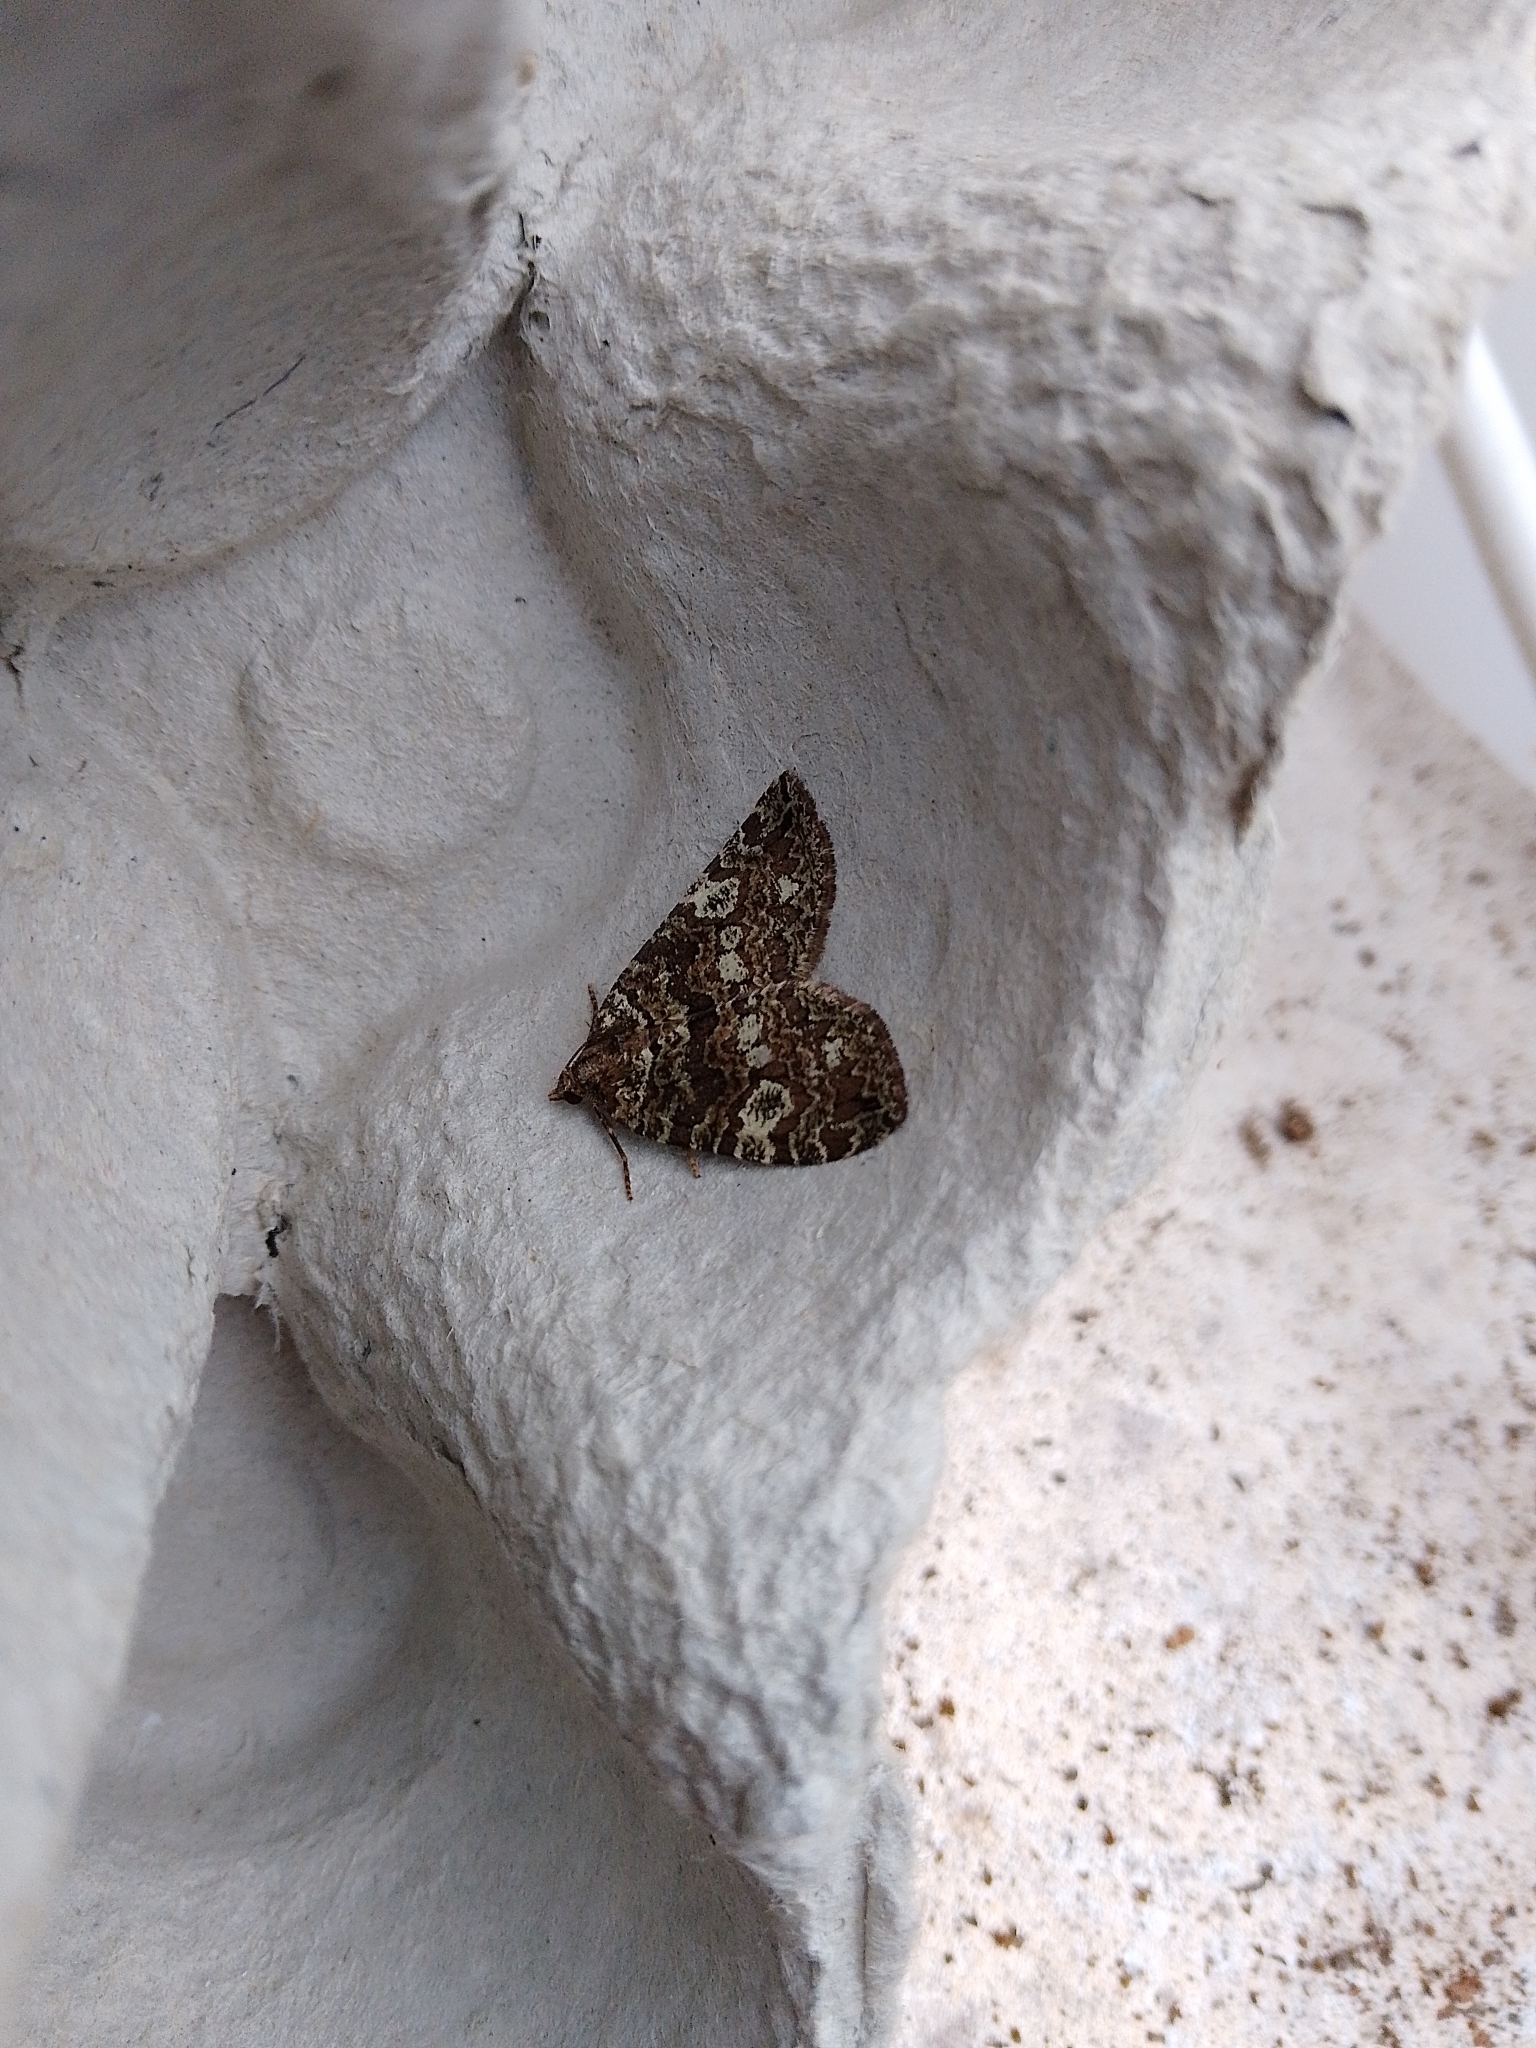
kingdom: Animalia
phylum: Arthropoda
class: Insecta
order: Lepidoptera
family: Geometridae
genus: Hydriomena
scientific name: Hydriomena furcata
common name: July highflyer
